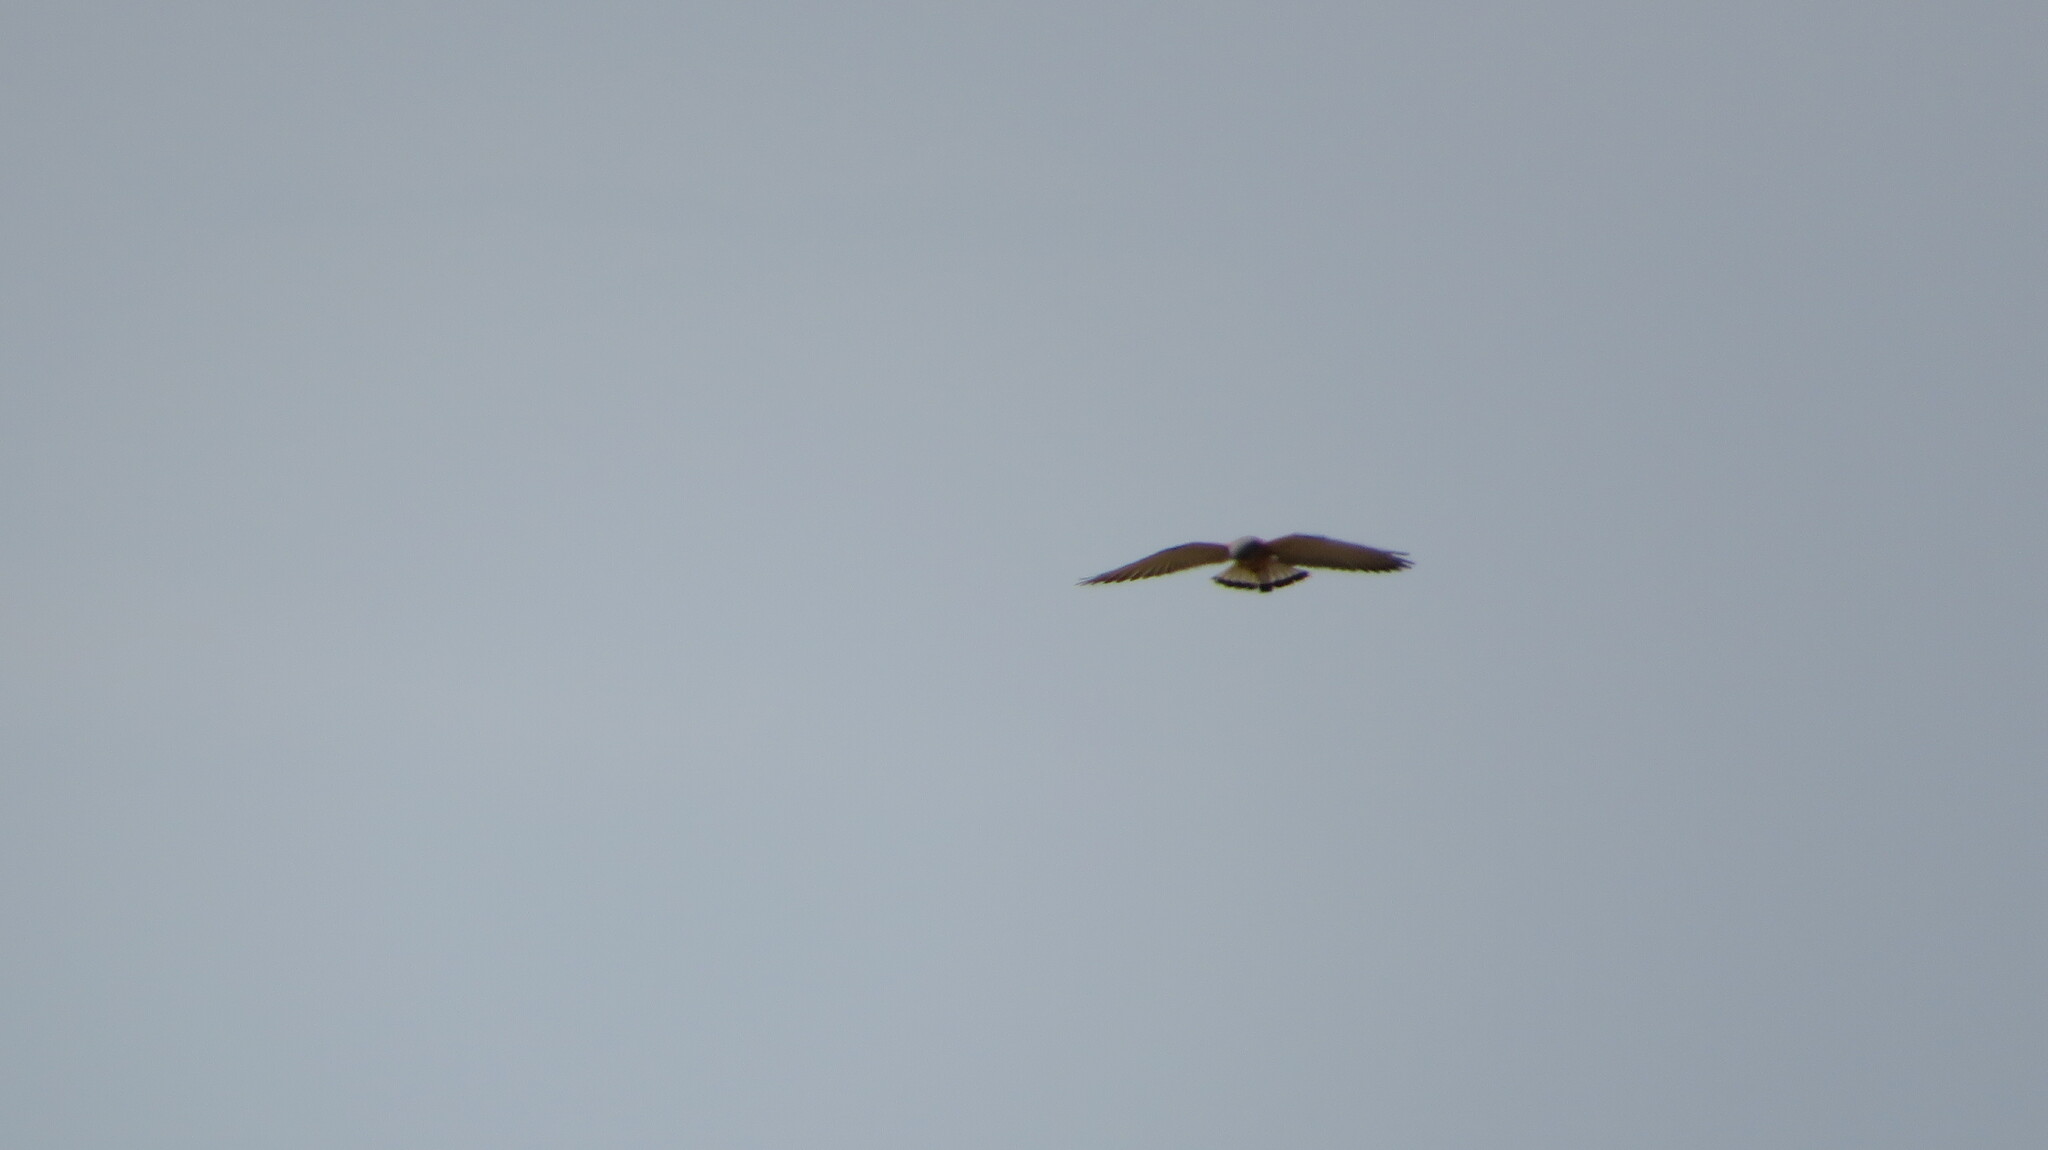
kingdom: Animalia
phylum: Chordata
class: Aves
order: Falconiformes
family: Falconidae
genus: Falco
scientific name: Falco tinnunculus
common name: Common kestrel
